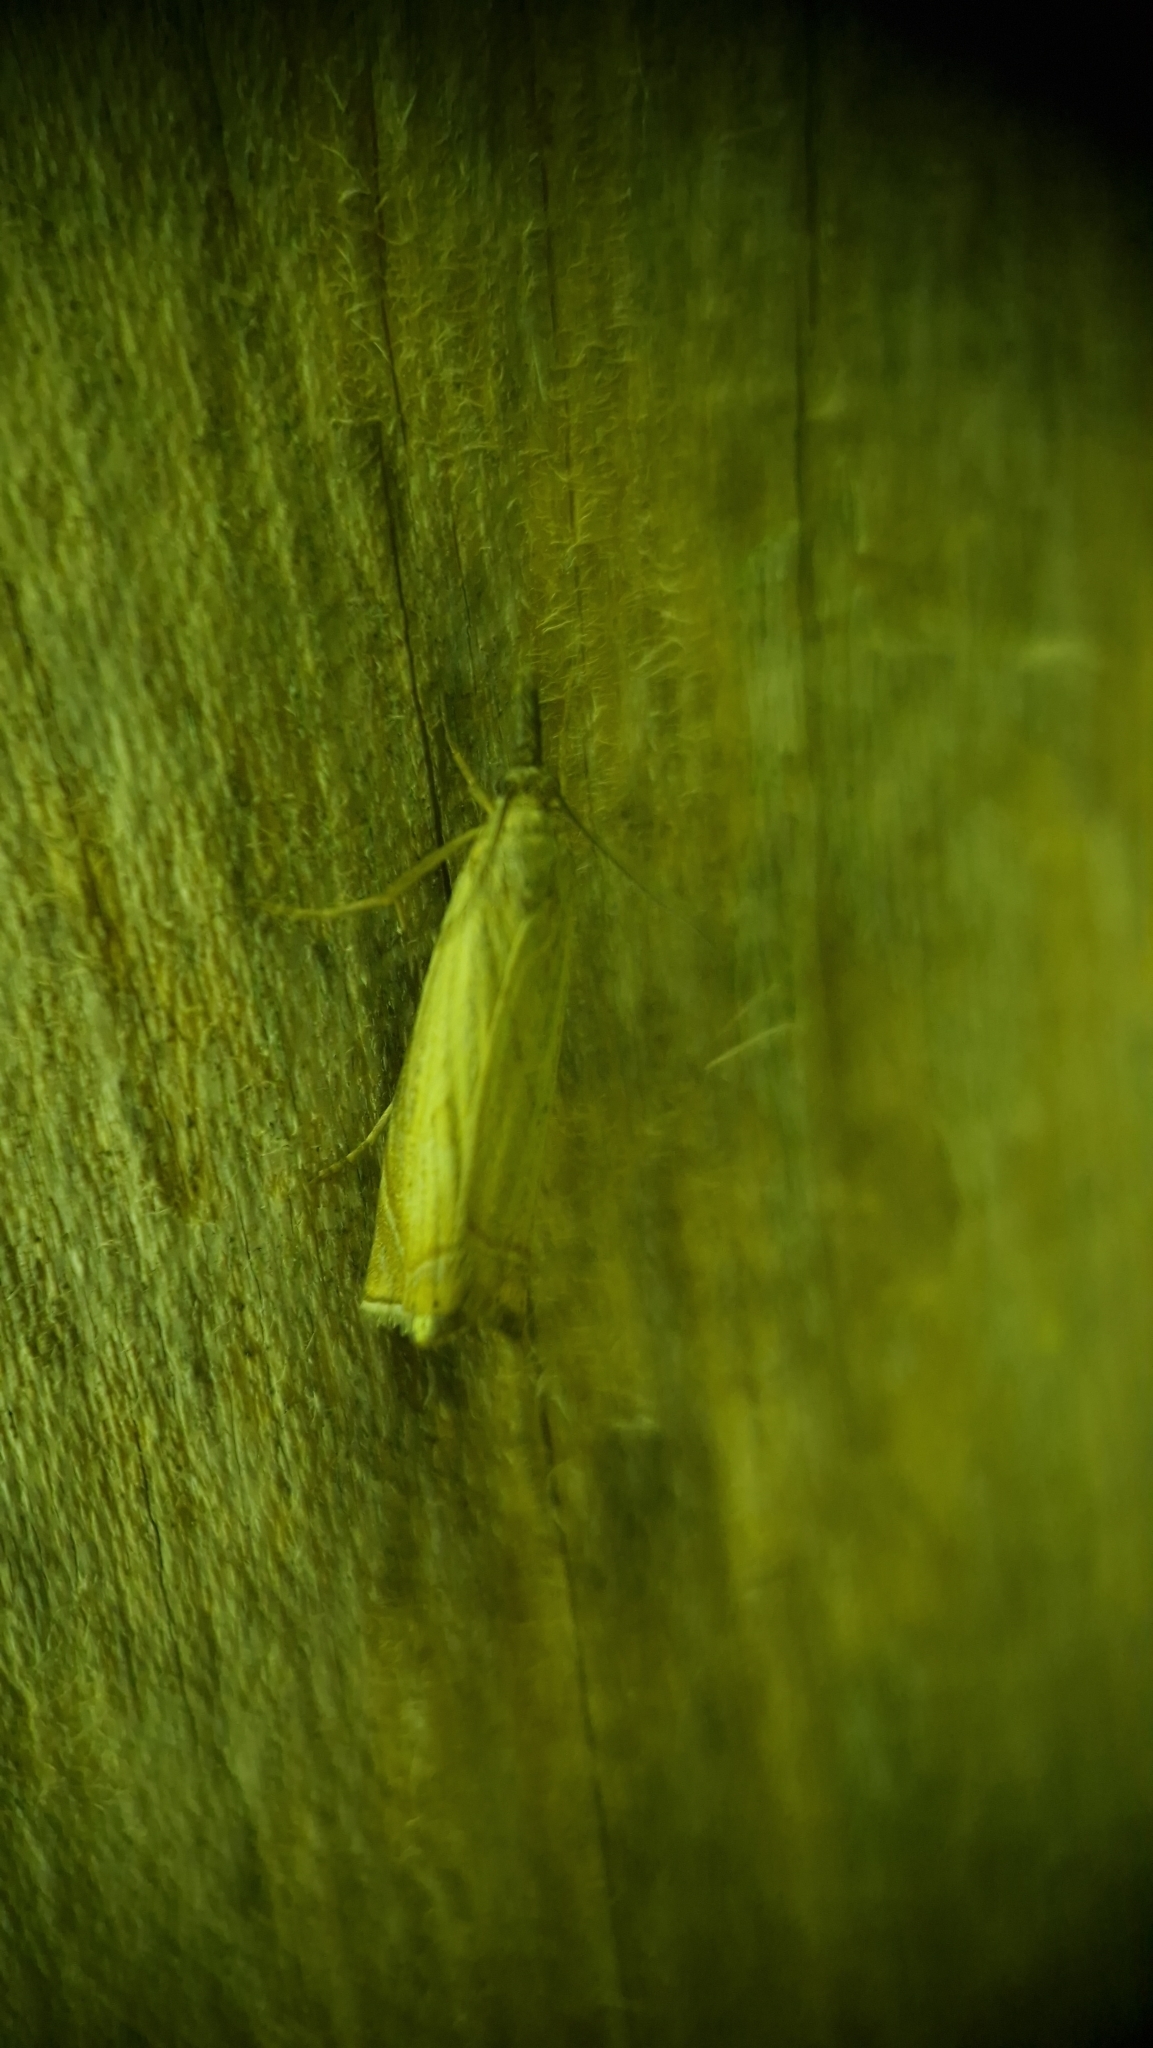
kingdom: Animalia
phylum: Arthropoda
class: Insecta
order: Lepidoptera
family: Crambidae
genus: Chrysoteuchia
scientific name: Chrysoteuchia culmella
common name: Garden grass-veneer
